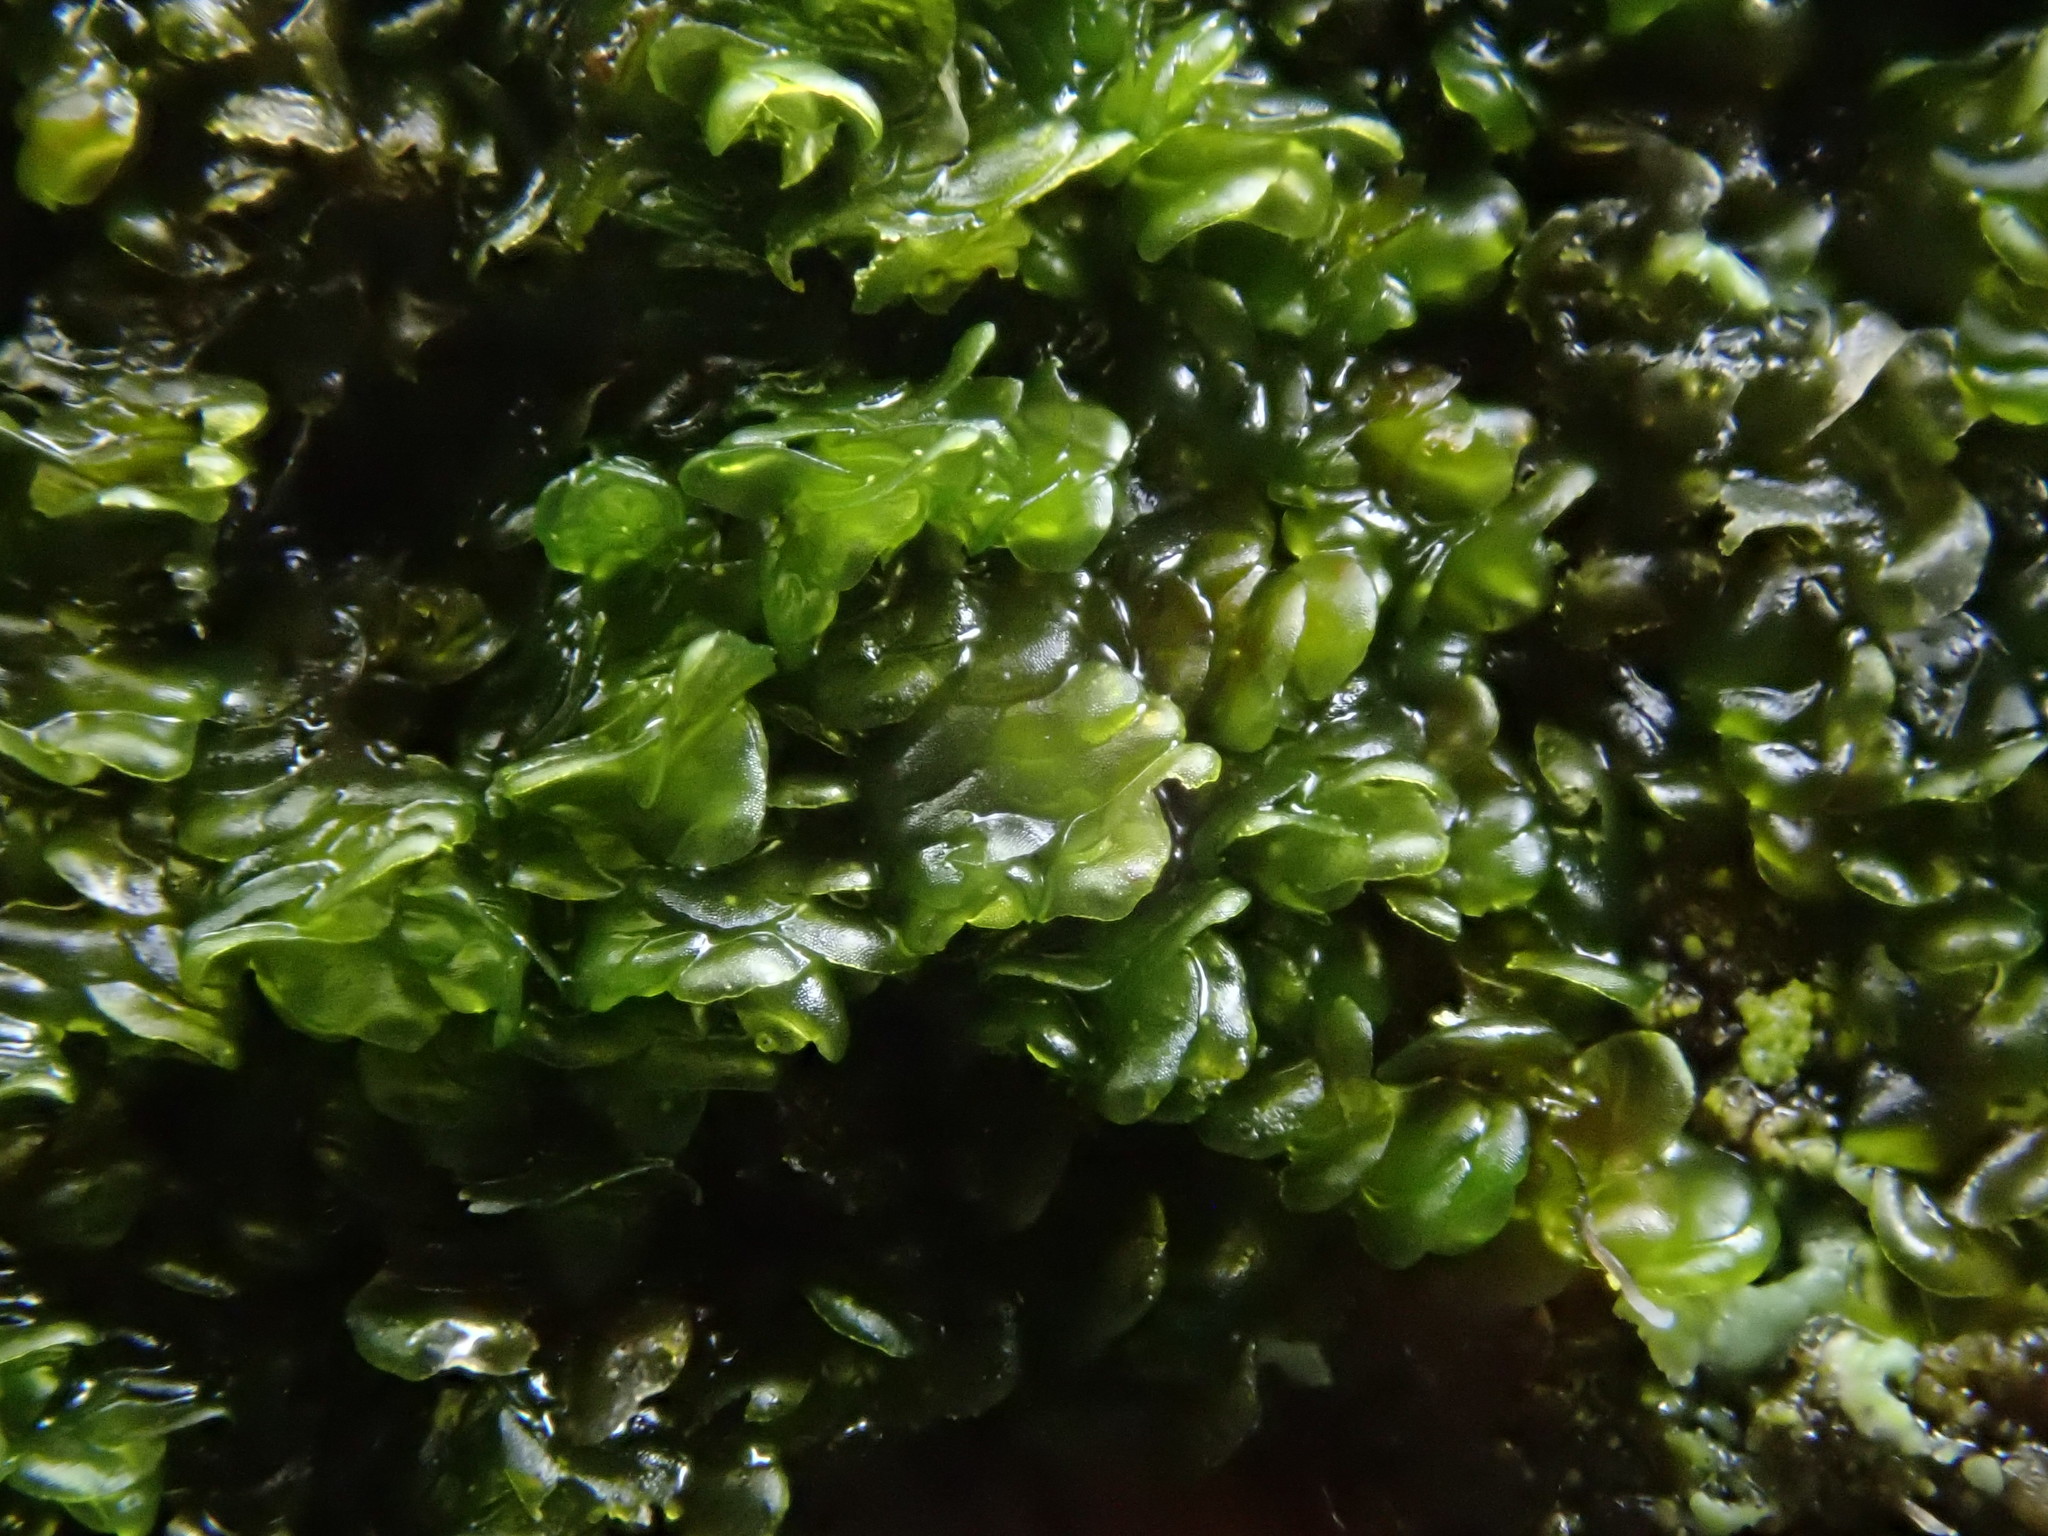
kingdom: Plantae
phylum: Marchantiophyta
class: Jungermanniopsida
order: Porellales
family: Frullaniaceae
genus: Frullania
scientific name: Frullania dilatata
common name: Dilated scalewort
